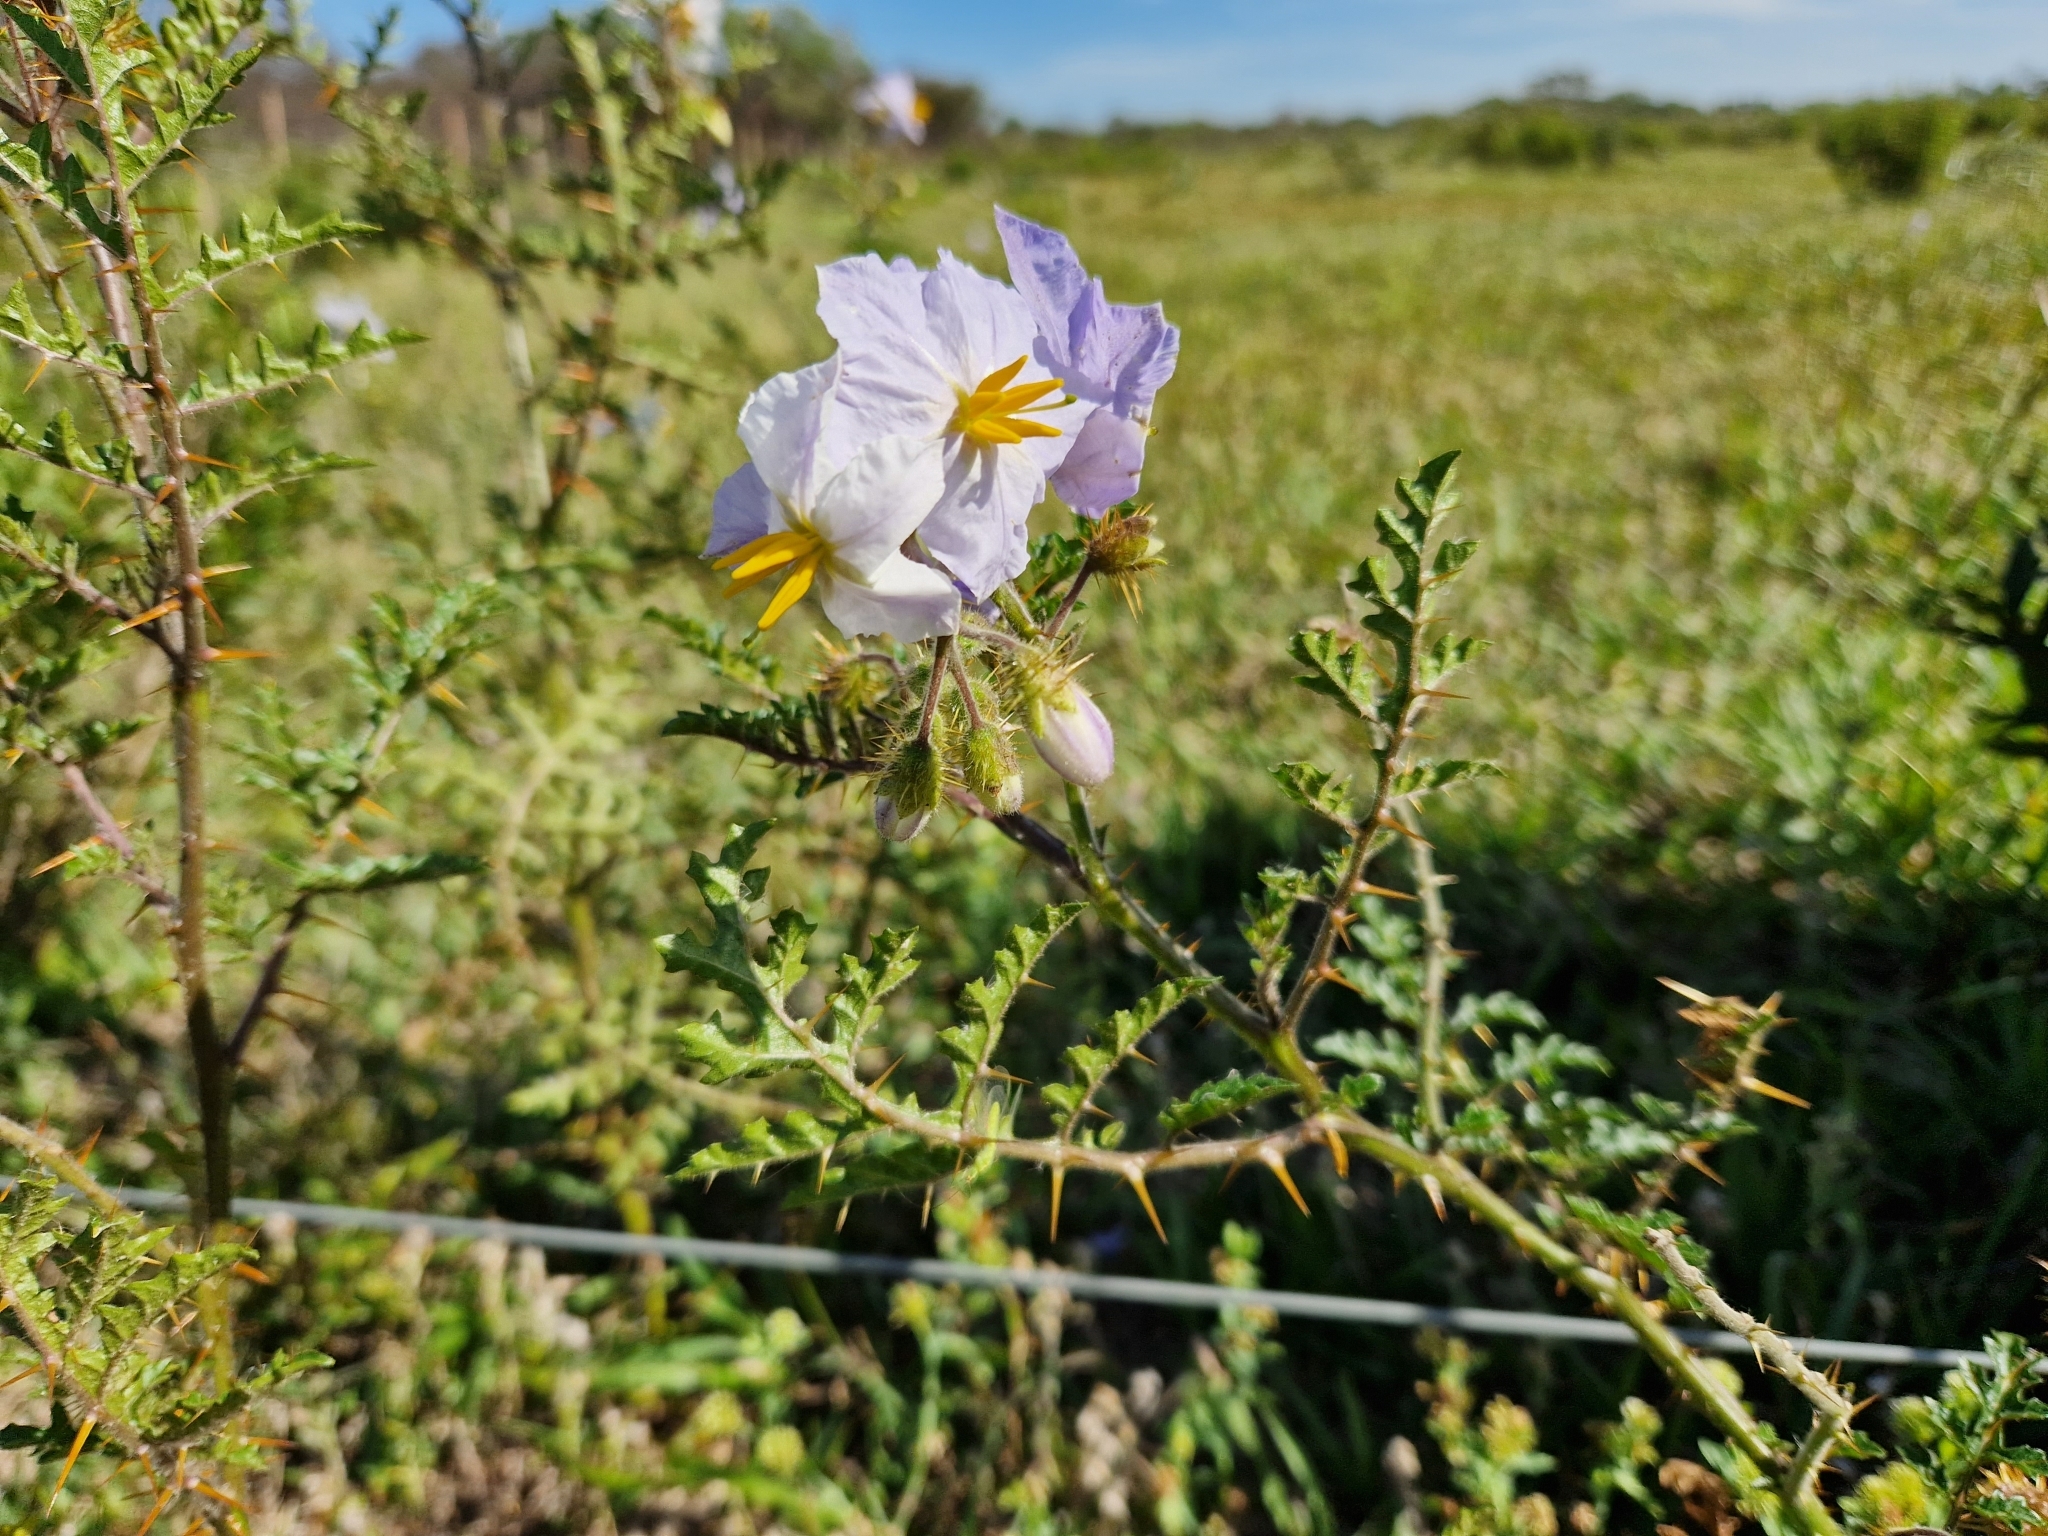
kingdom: Plantae
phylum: Tracheophyta
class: Magnoliopsida
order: Solanales
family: Solanaceae
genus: Solanum
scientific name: Solanum sisymbriifolium
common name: Red buffalo-bur
